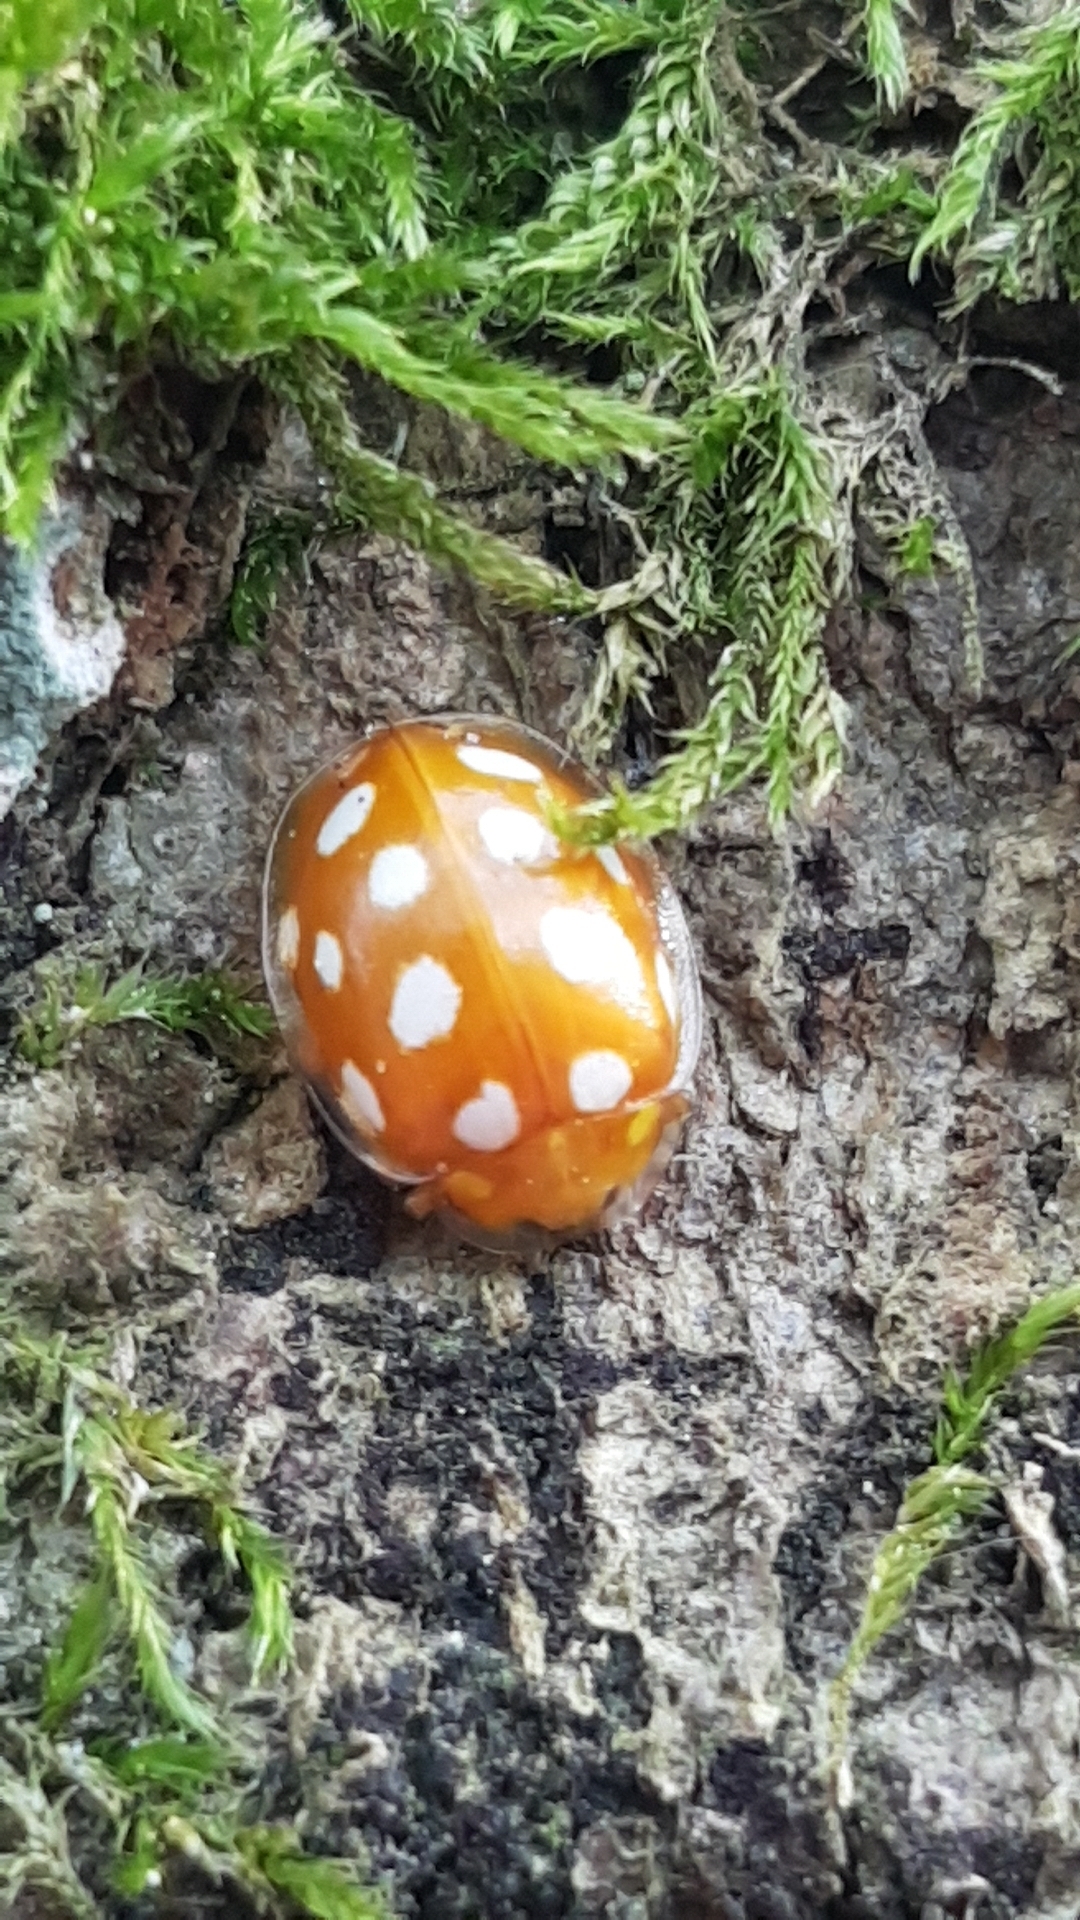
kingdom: Animalia
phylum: Arthropoda
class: Insecta
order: Coleoptera
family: Coccinellidae
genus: Halyzia
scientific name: Halyzia sedecimguttata
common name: Orange ladybird
